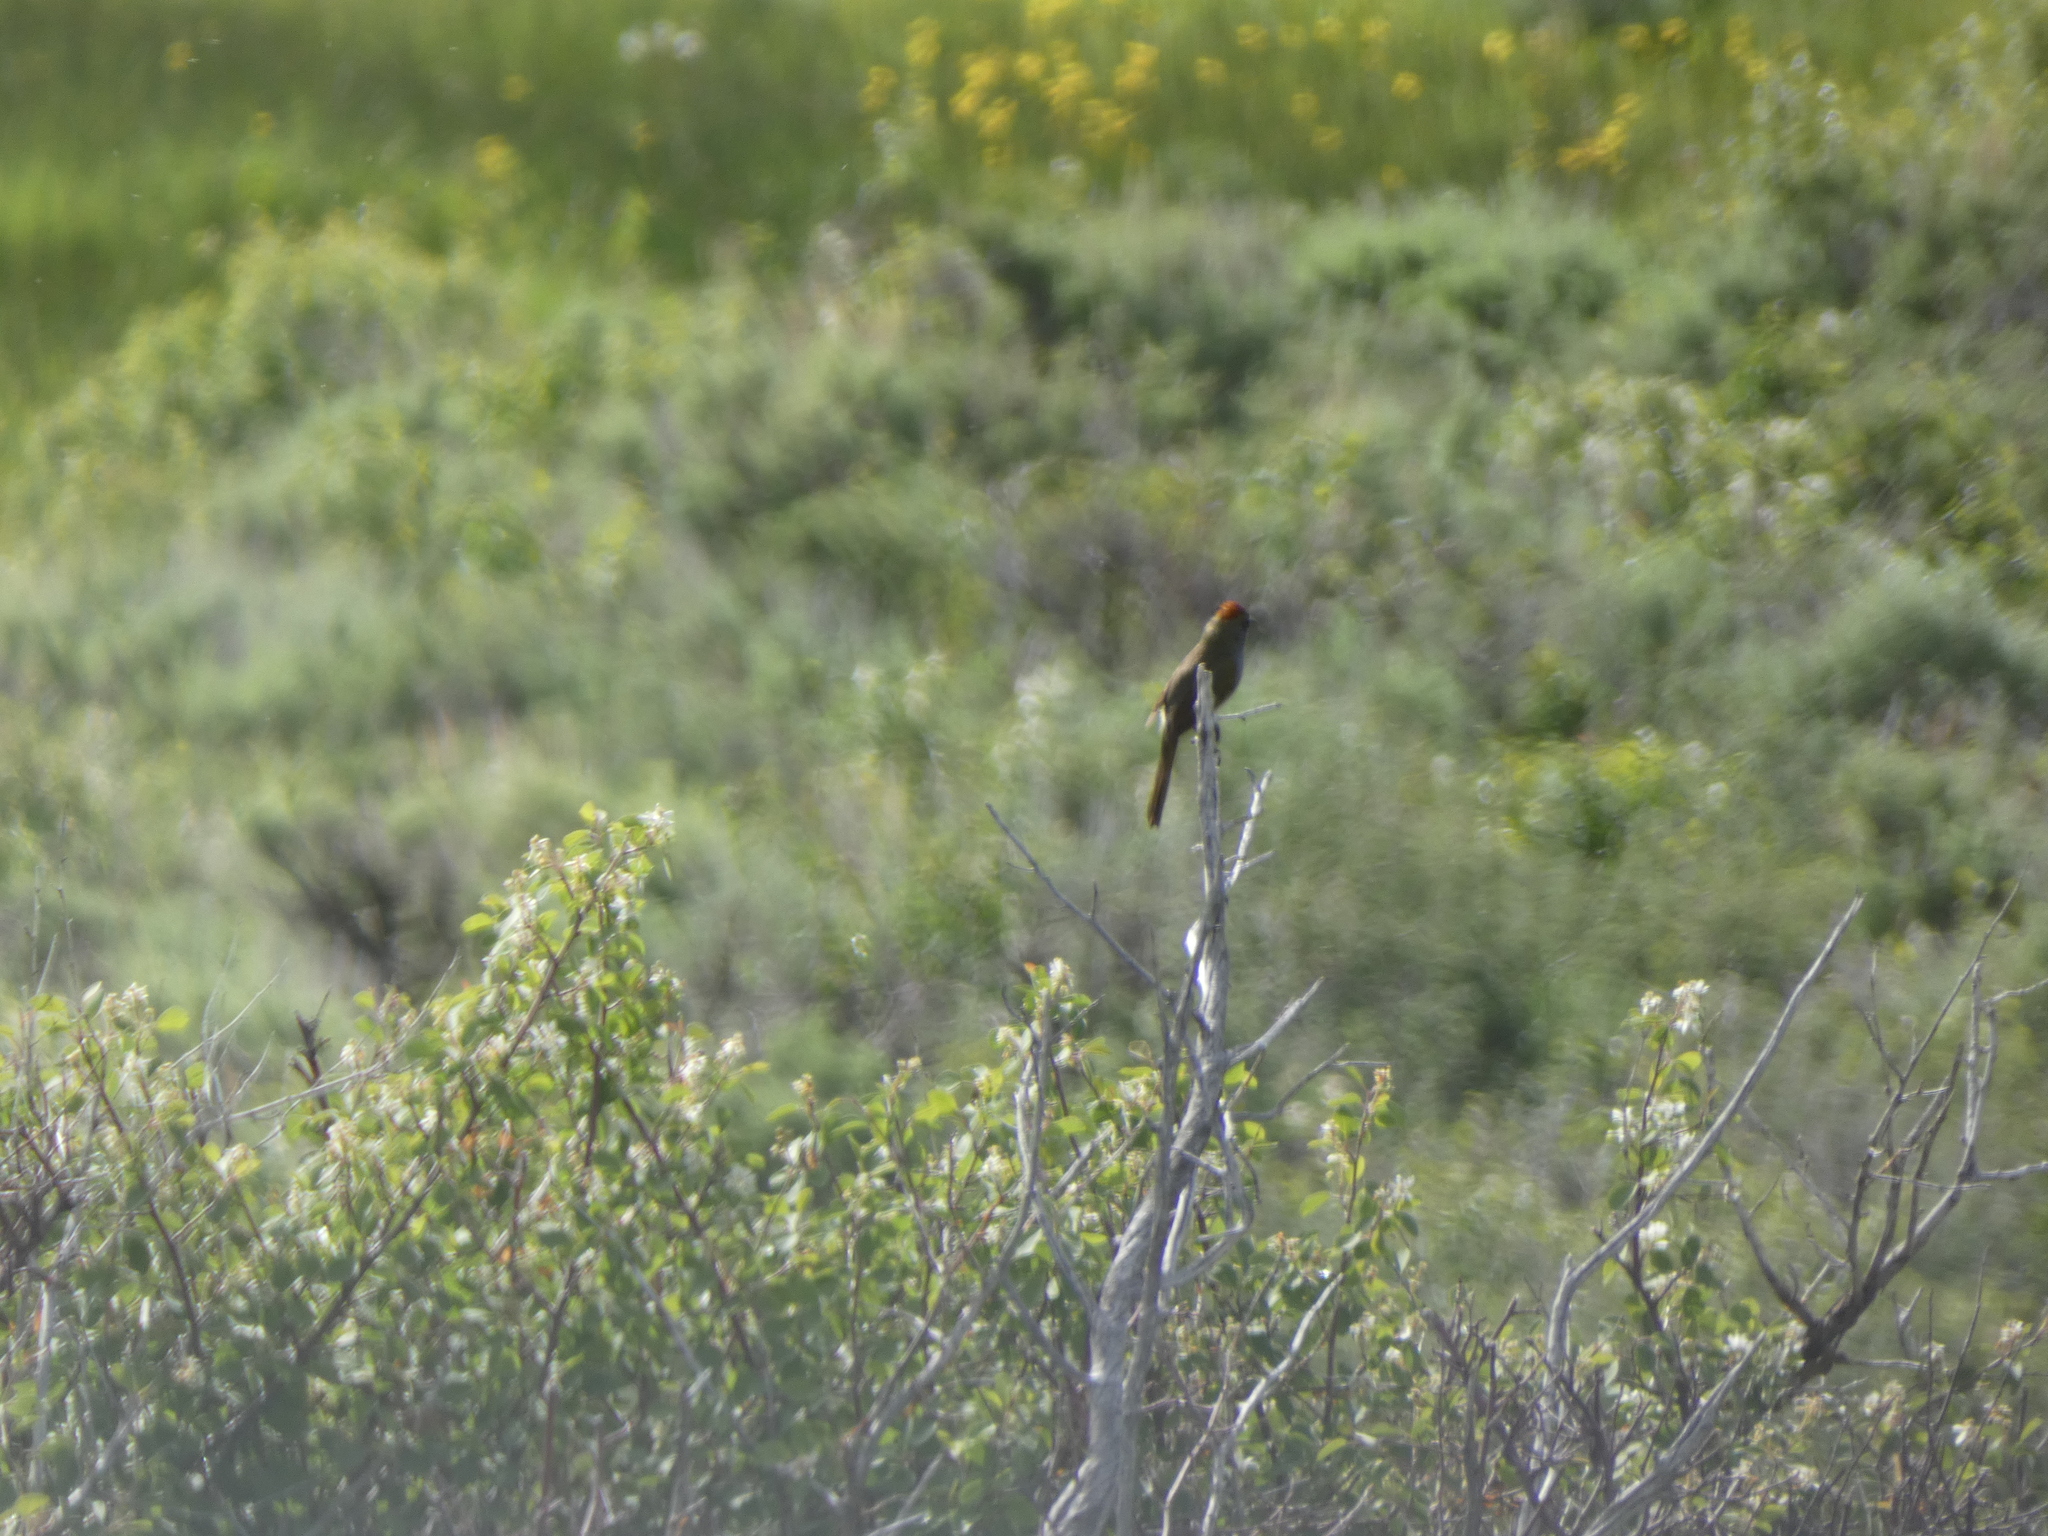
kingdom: Animalia
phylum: Chordata
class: Aves
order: Passeriformes
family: Passerellidae
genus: Pipilo
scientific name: Pipilo chlorurus
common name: Green-tailed towhee
